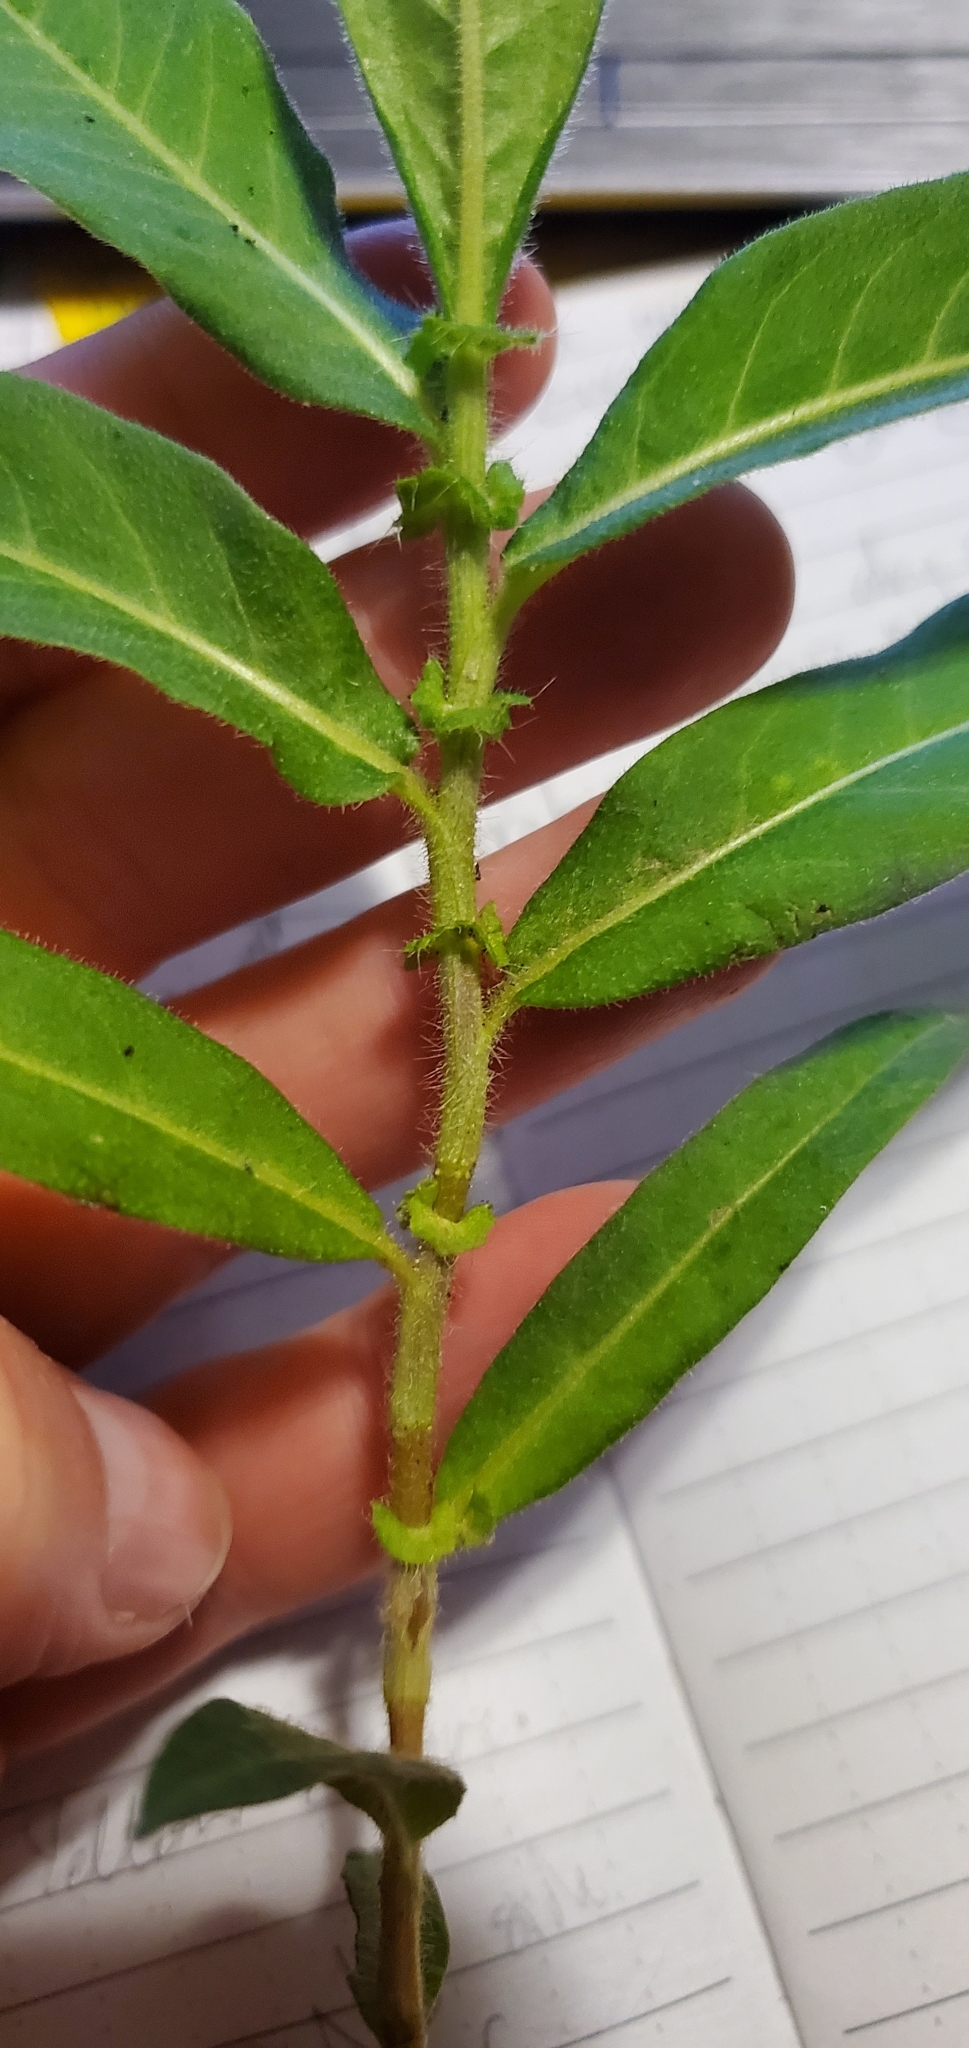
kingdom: Plantae
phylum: Tracheophyta
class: Magnoliopsida
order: Caryophyllales
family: Polygonaceae
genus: Persicaria
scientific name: Persicaria amphibia
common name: Amphibious bistort
